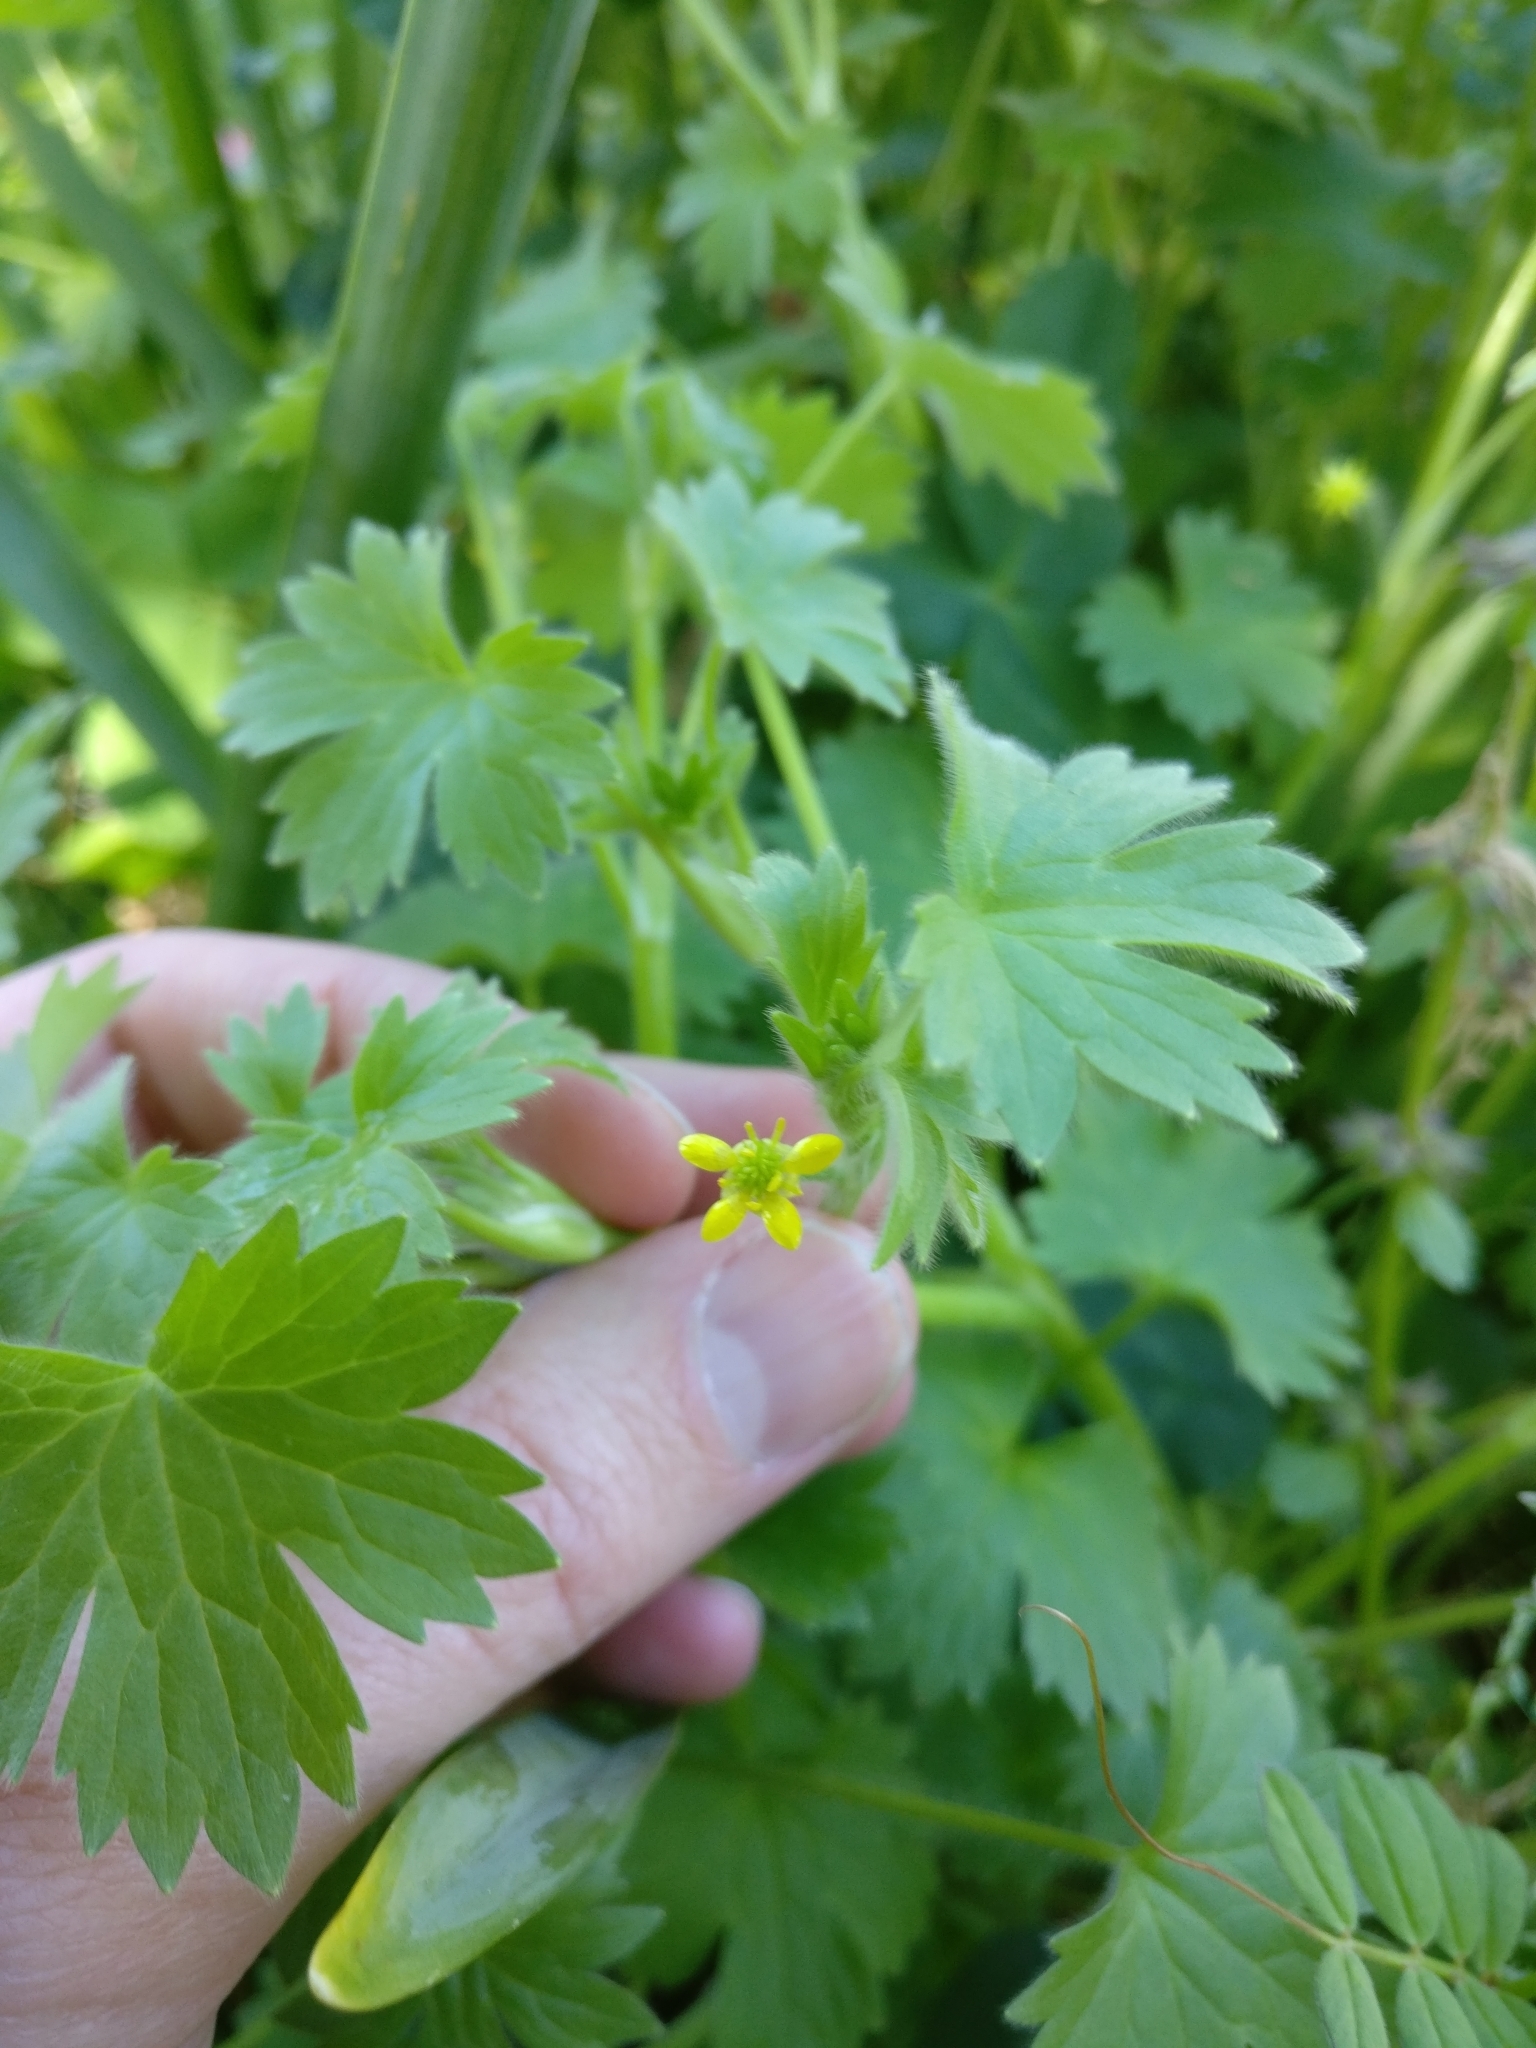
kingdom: Plantae
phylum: Tracheophyta
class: Magnoliopsida
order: Ranunculales
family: Ranunculaceae
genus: Ranunculus
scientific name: Ranunculus parviflorus
